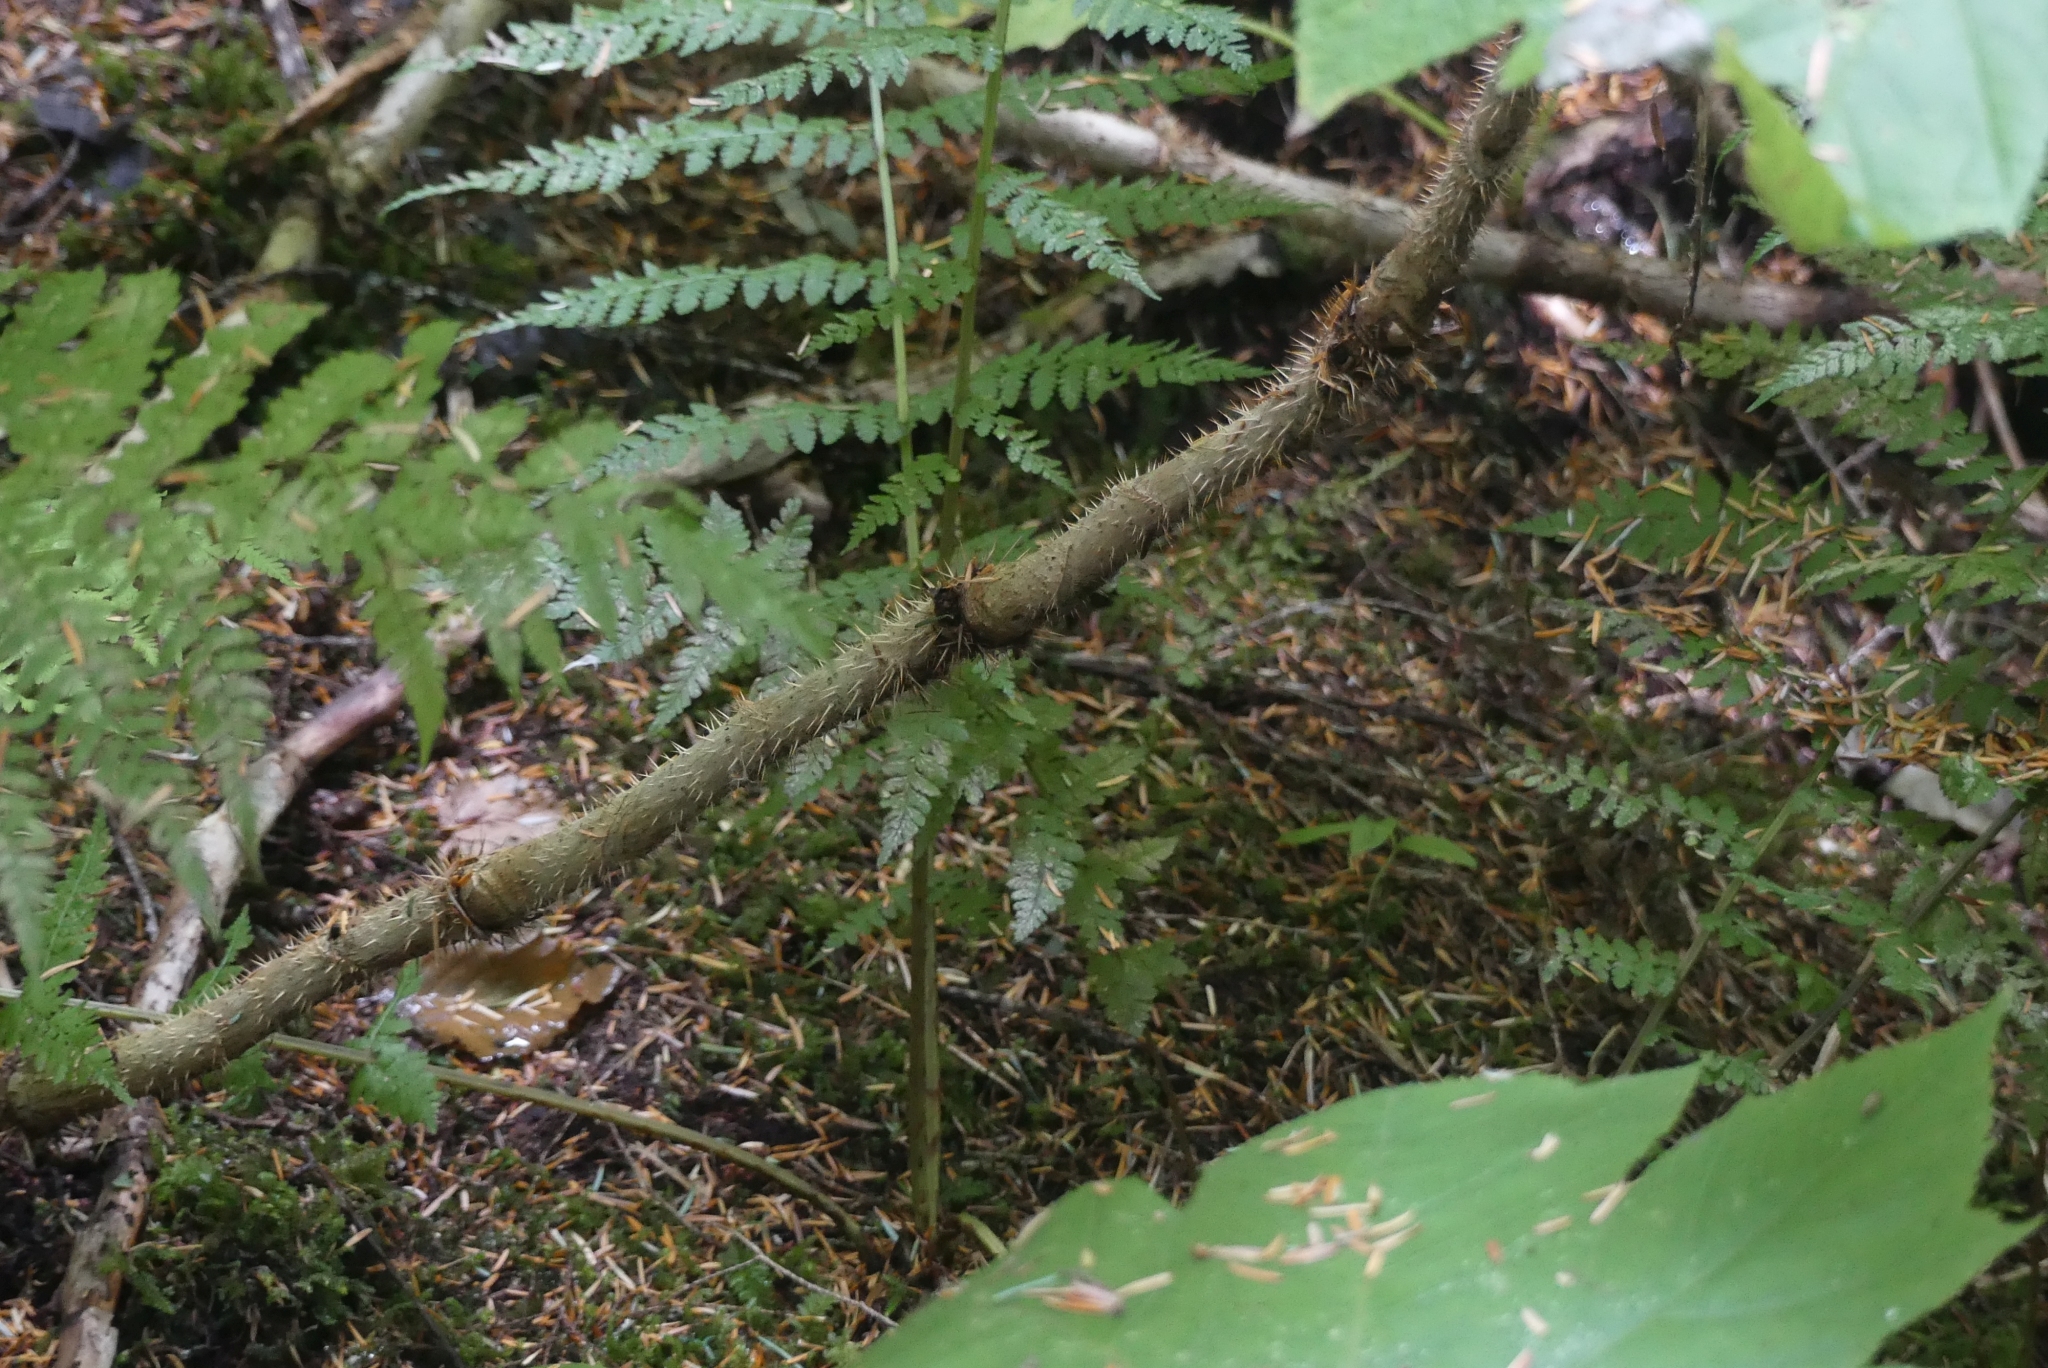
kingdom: Plantae
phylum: Tracheophyta
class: Magnoliopsida
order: Apiales
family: Araliaceae
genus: Oplopanax
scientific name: Oplopanax horridus
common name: Devil's walking-stick
